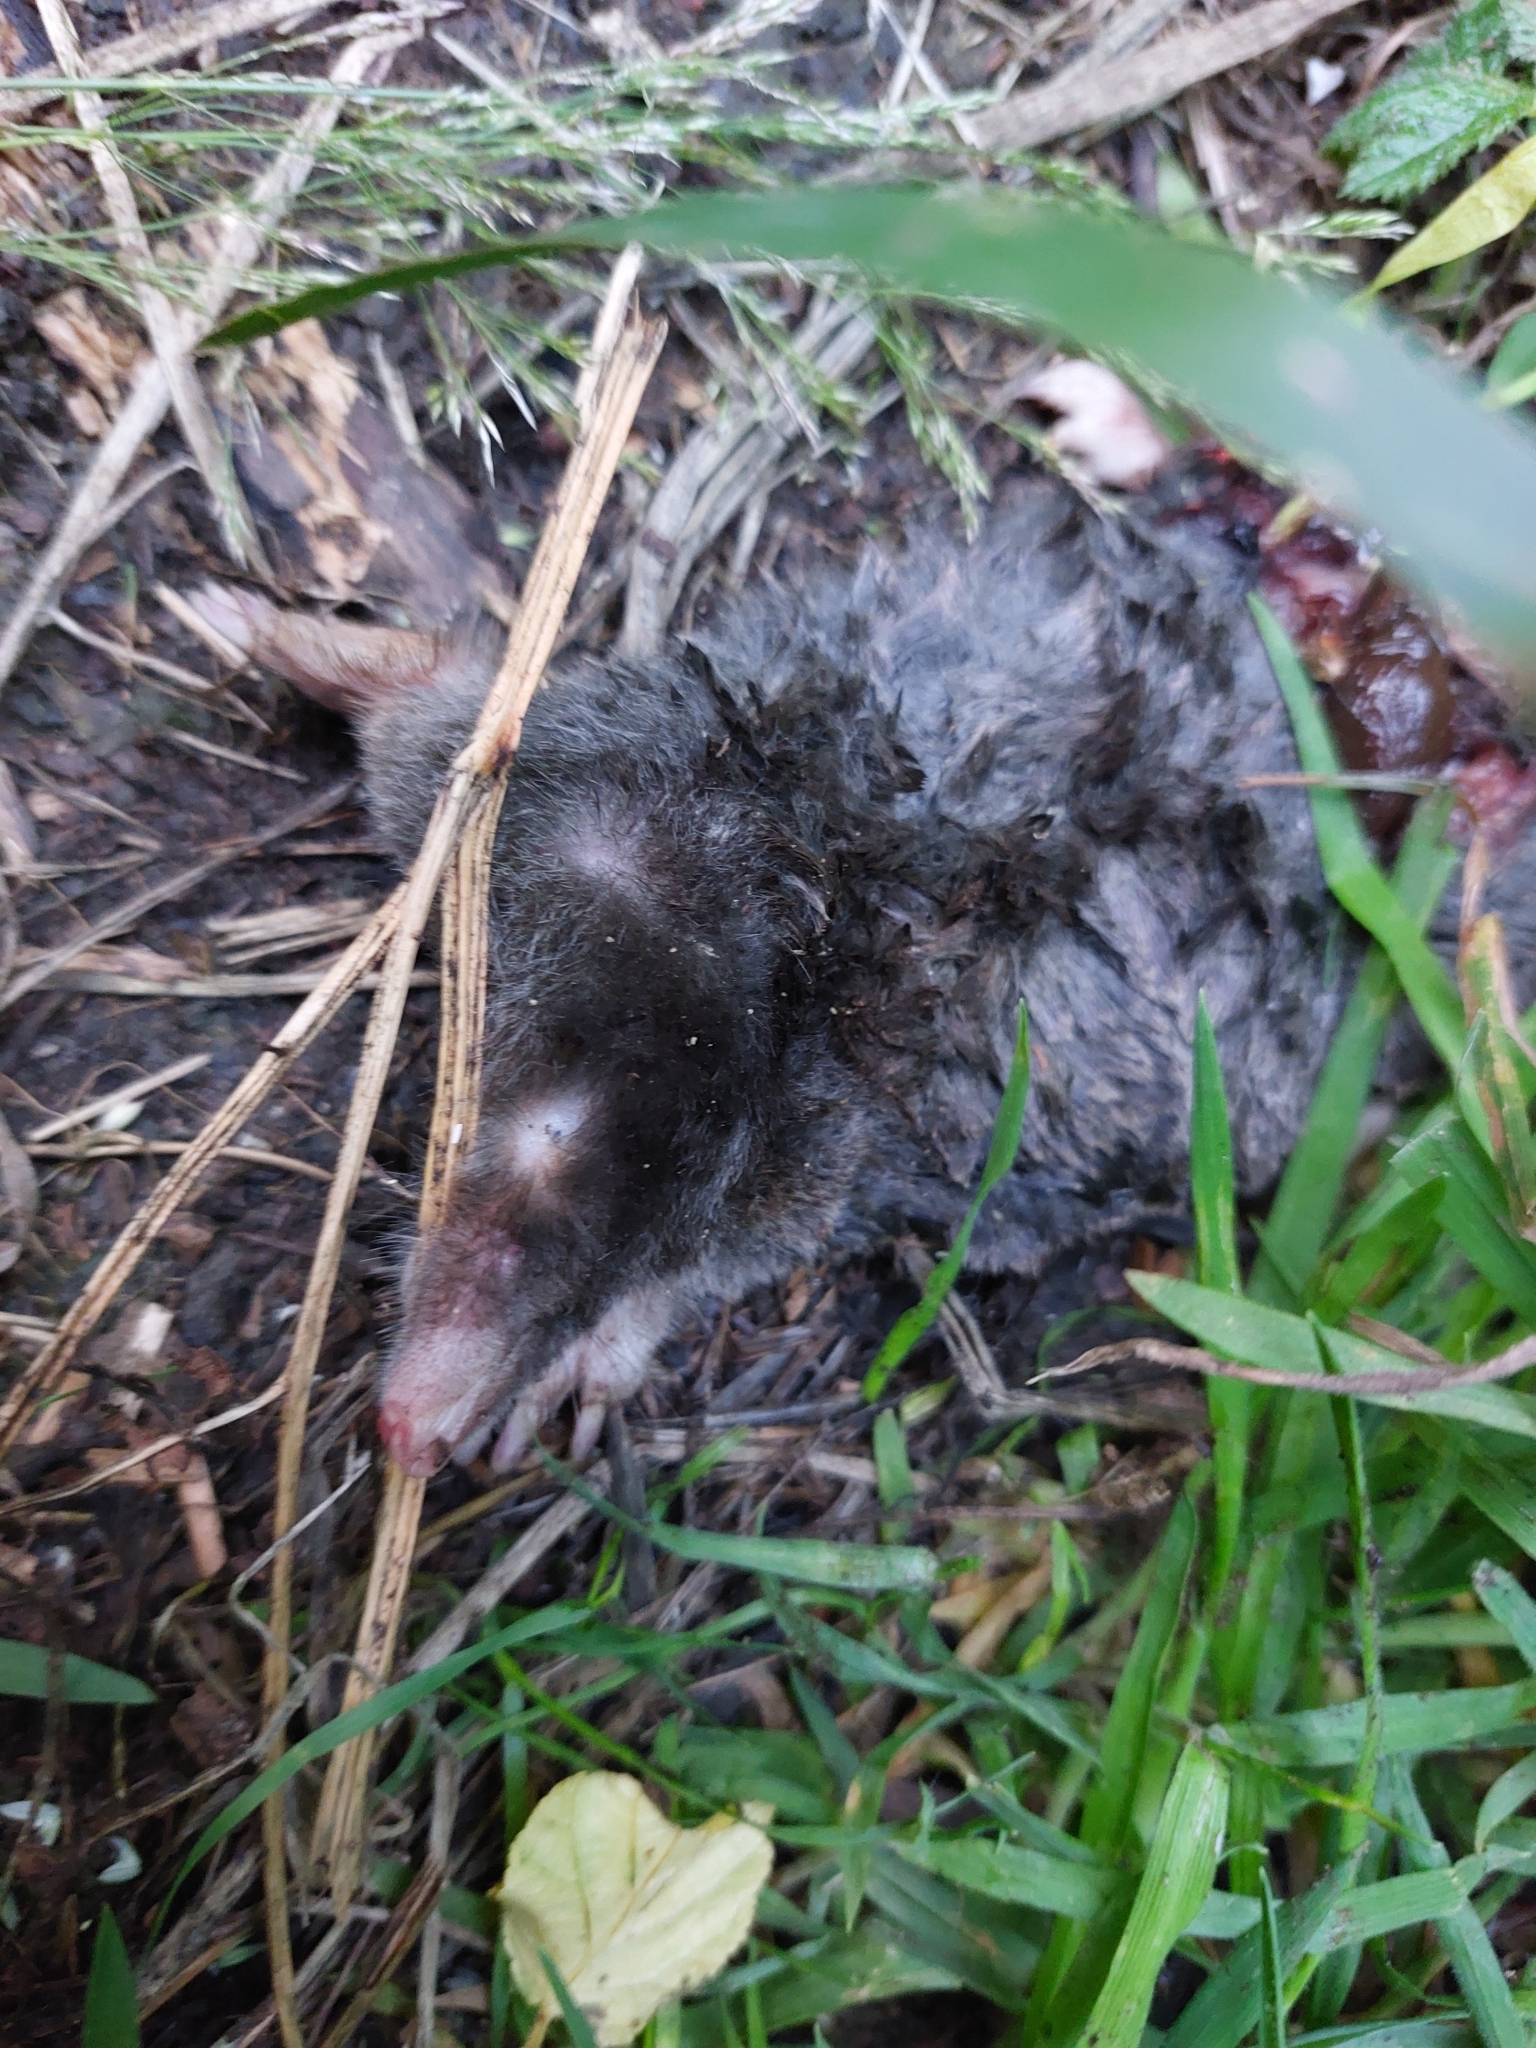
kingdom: Animalia
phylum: Chordata
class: Mammalia
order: Soricomorpha
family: Talpidae
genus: Talpa
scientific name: Talpa europaea
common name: European mole
